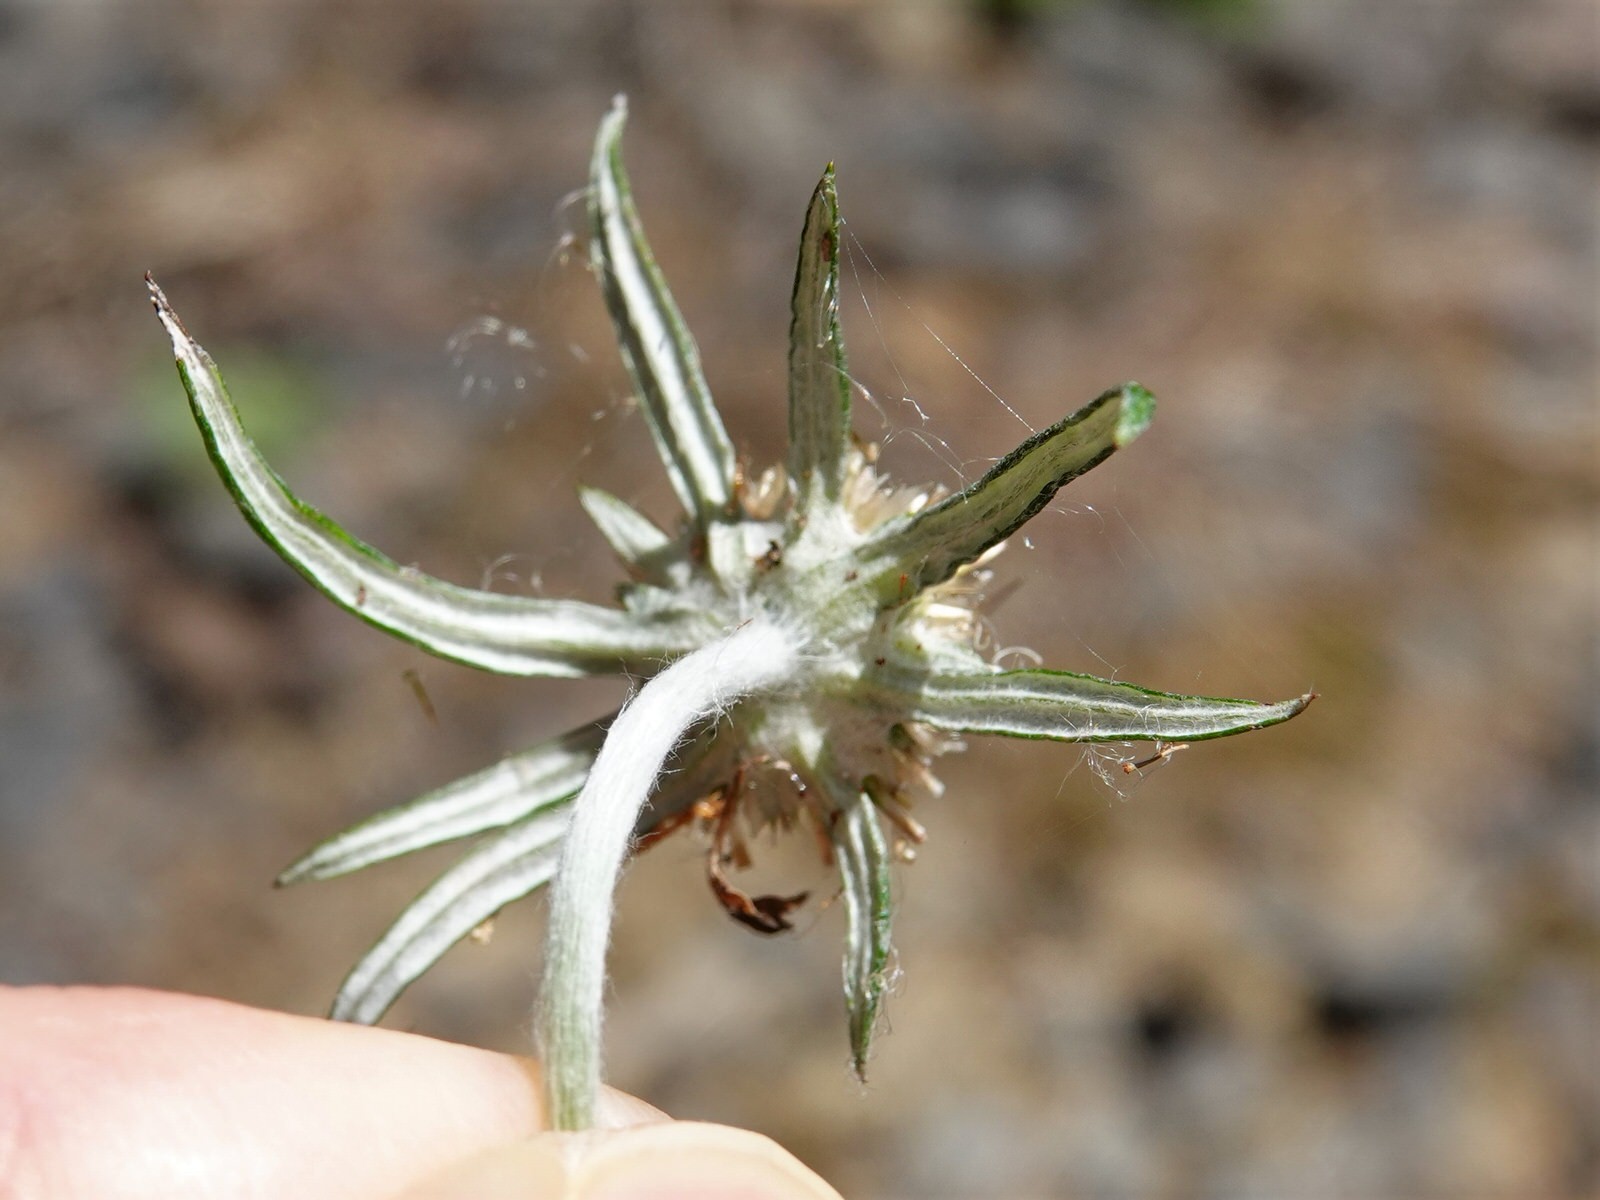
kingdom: Plantae
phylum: Tracheophyta
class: Magnoliopsida
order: Asterales
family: Asteraceae
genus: Euchiton
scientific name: Euchiton sphaericus
